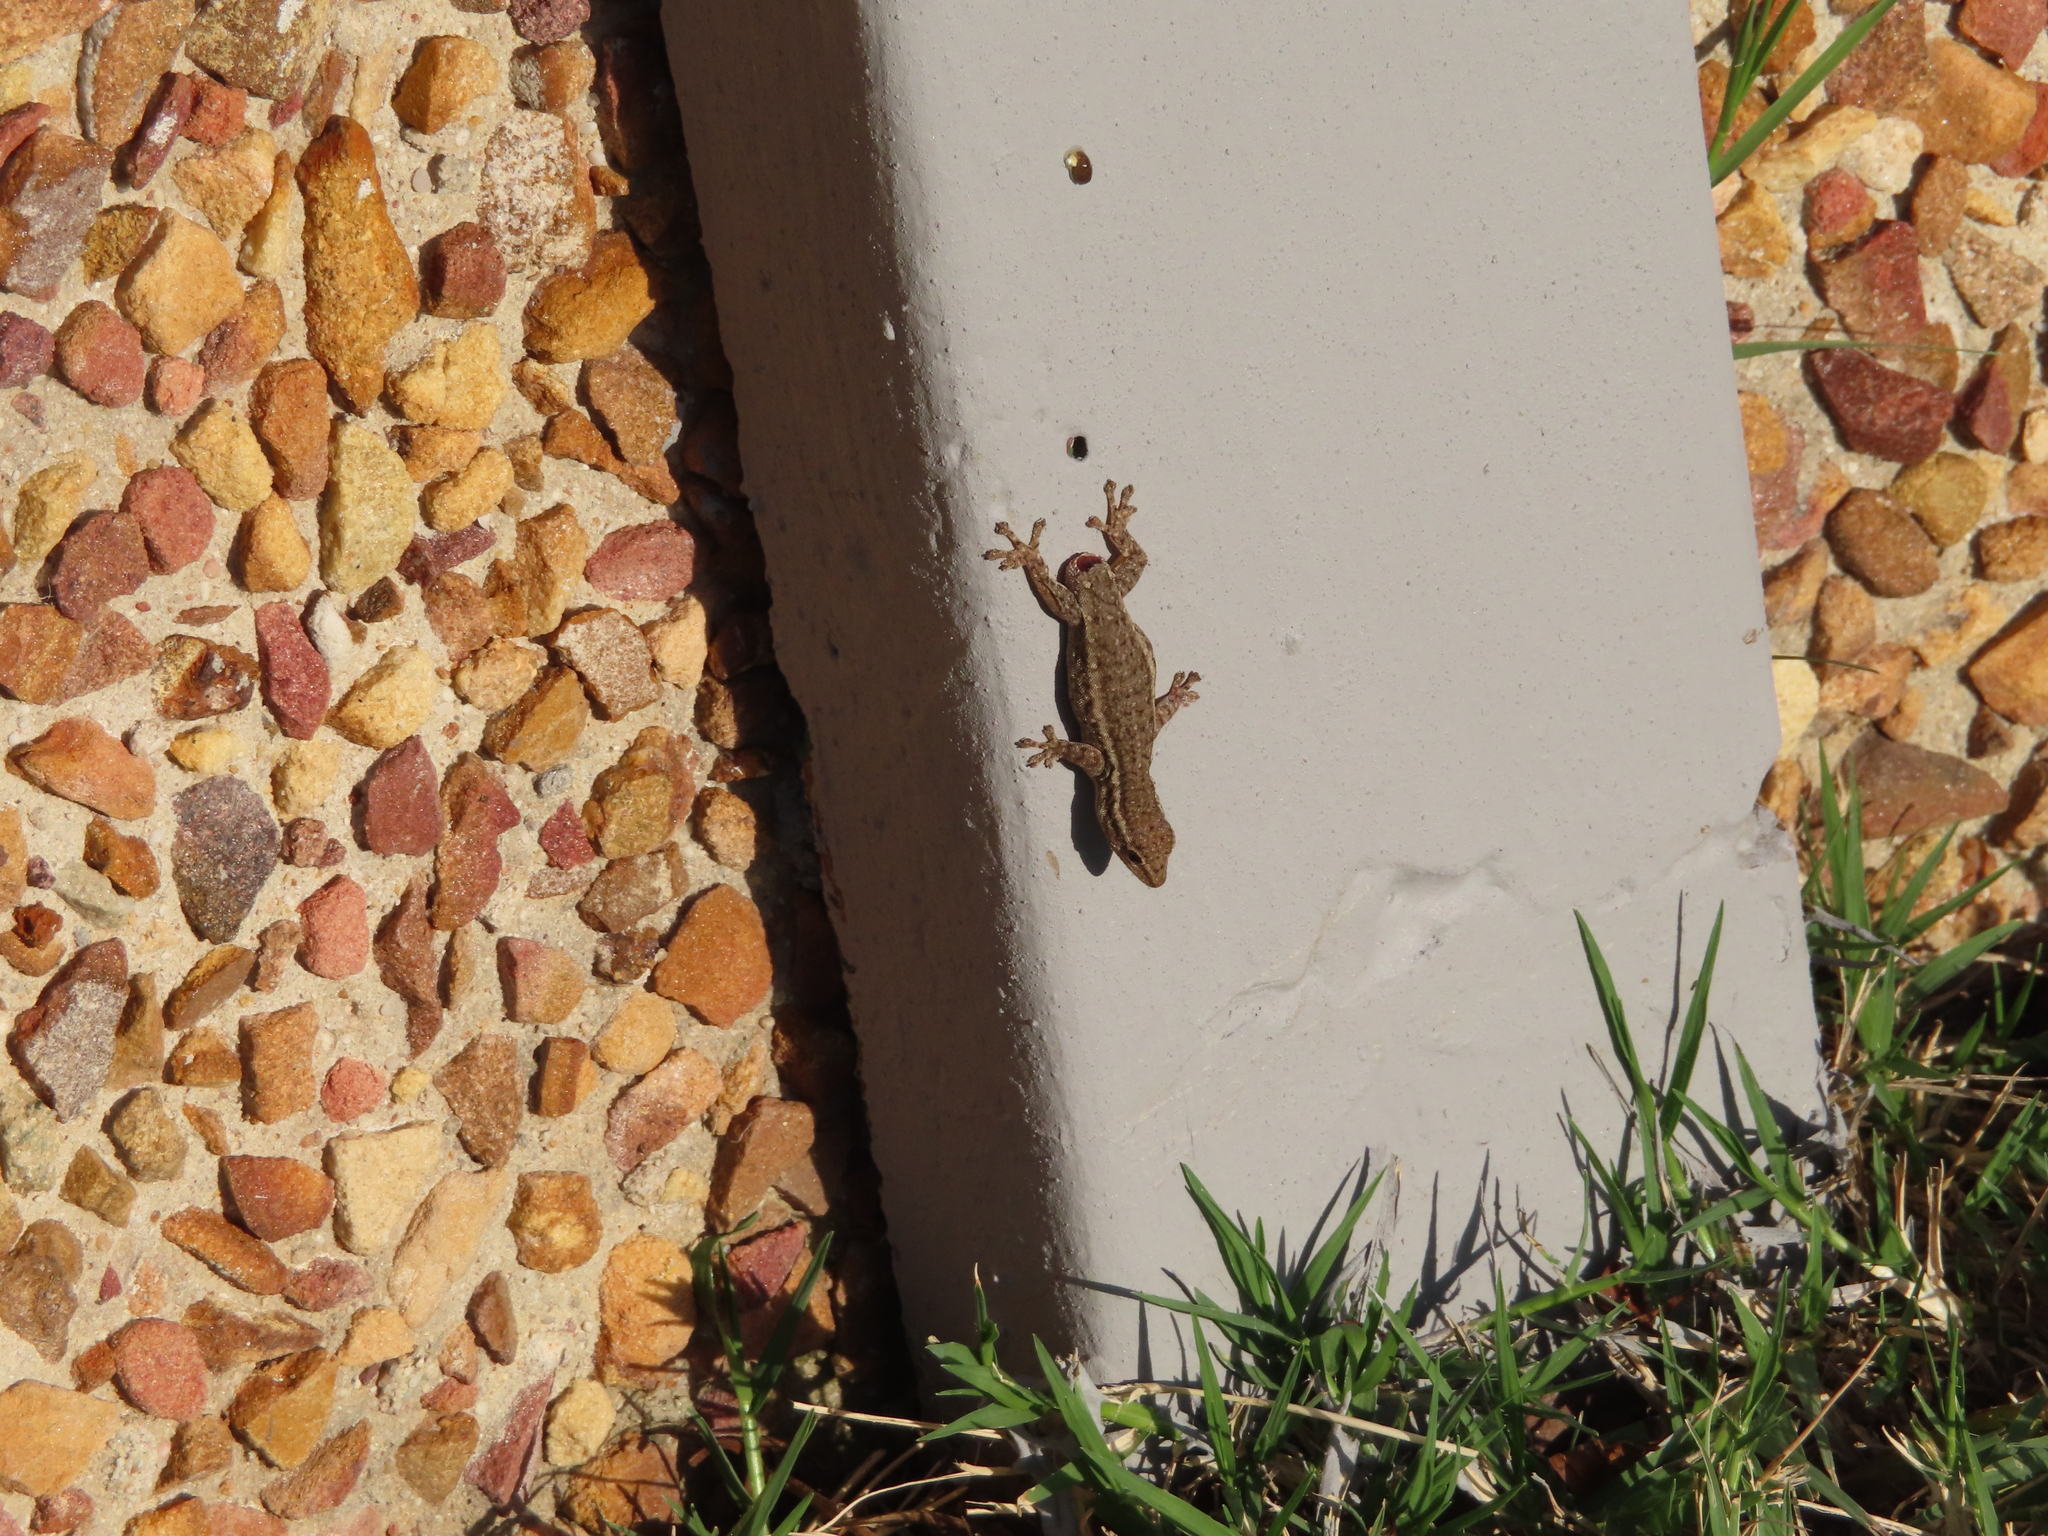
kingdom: Animalia
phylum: Chordata
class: Squamata
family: Gekkonidae
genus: Lygodactylus
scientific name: Lygodactylus capensis
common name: Cape dwarf gecko
